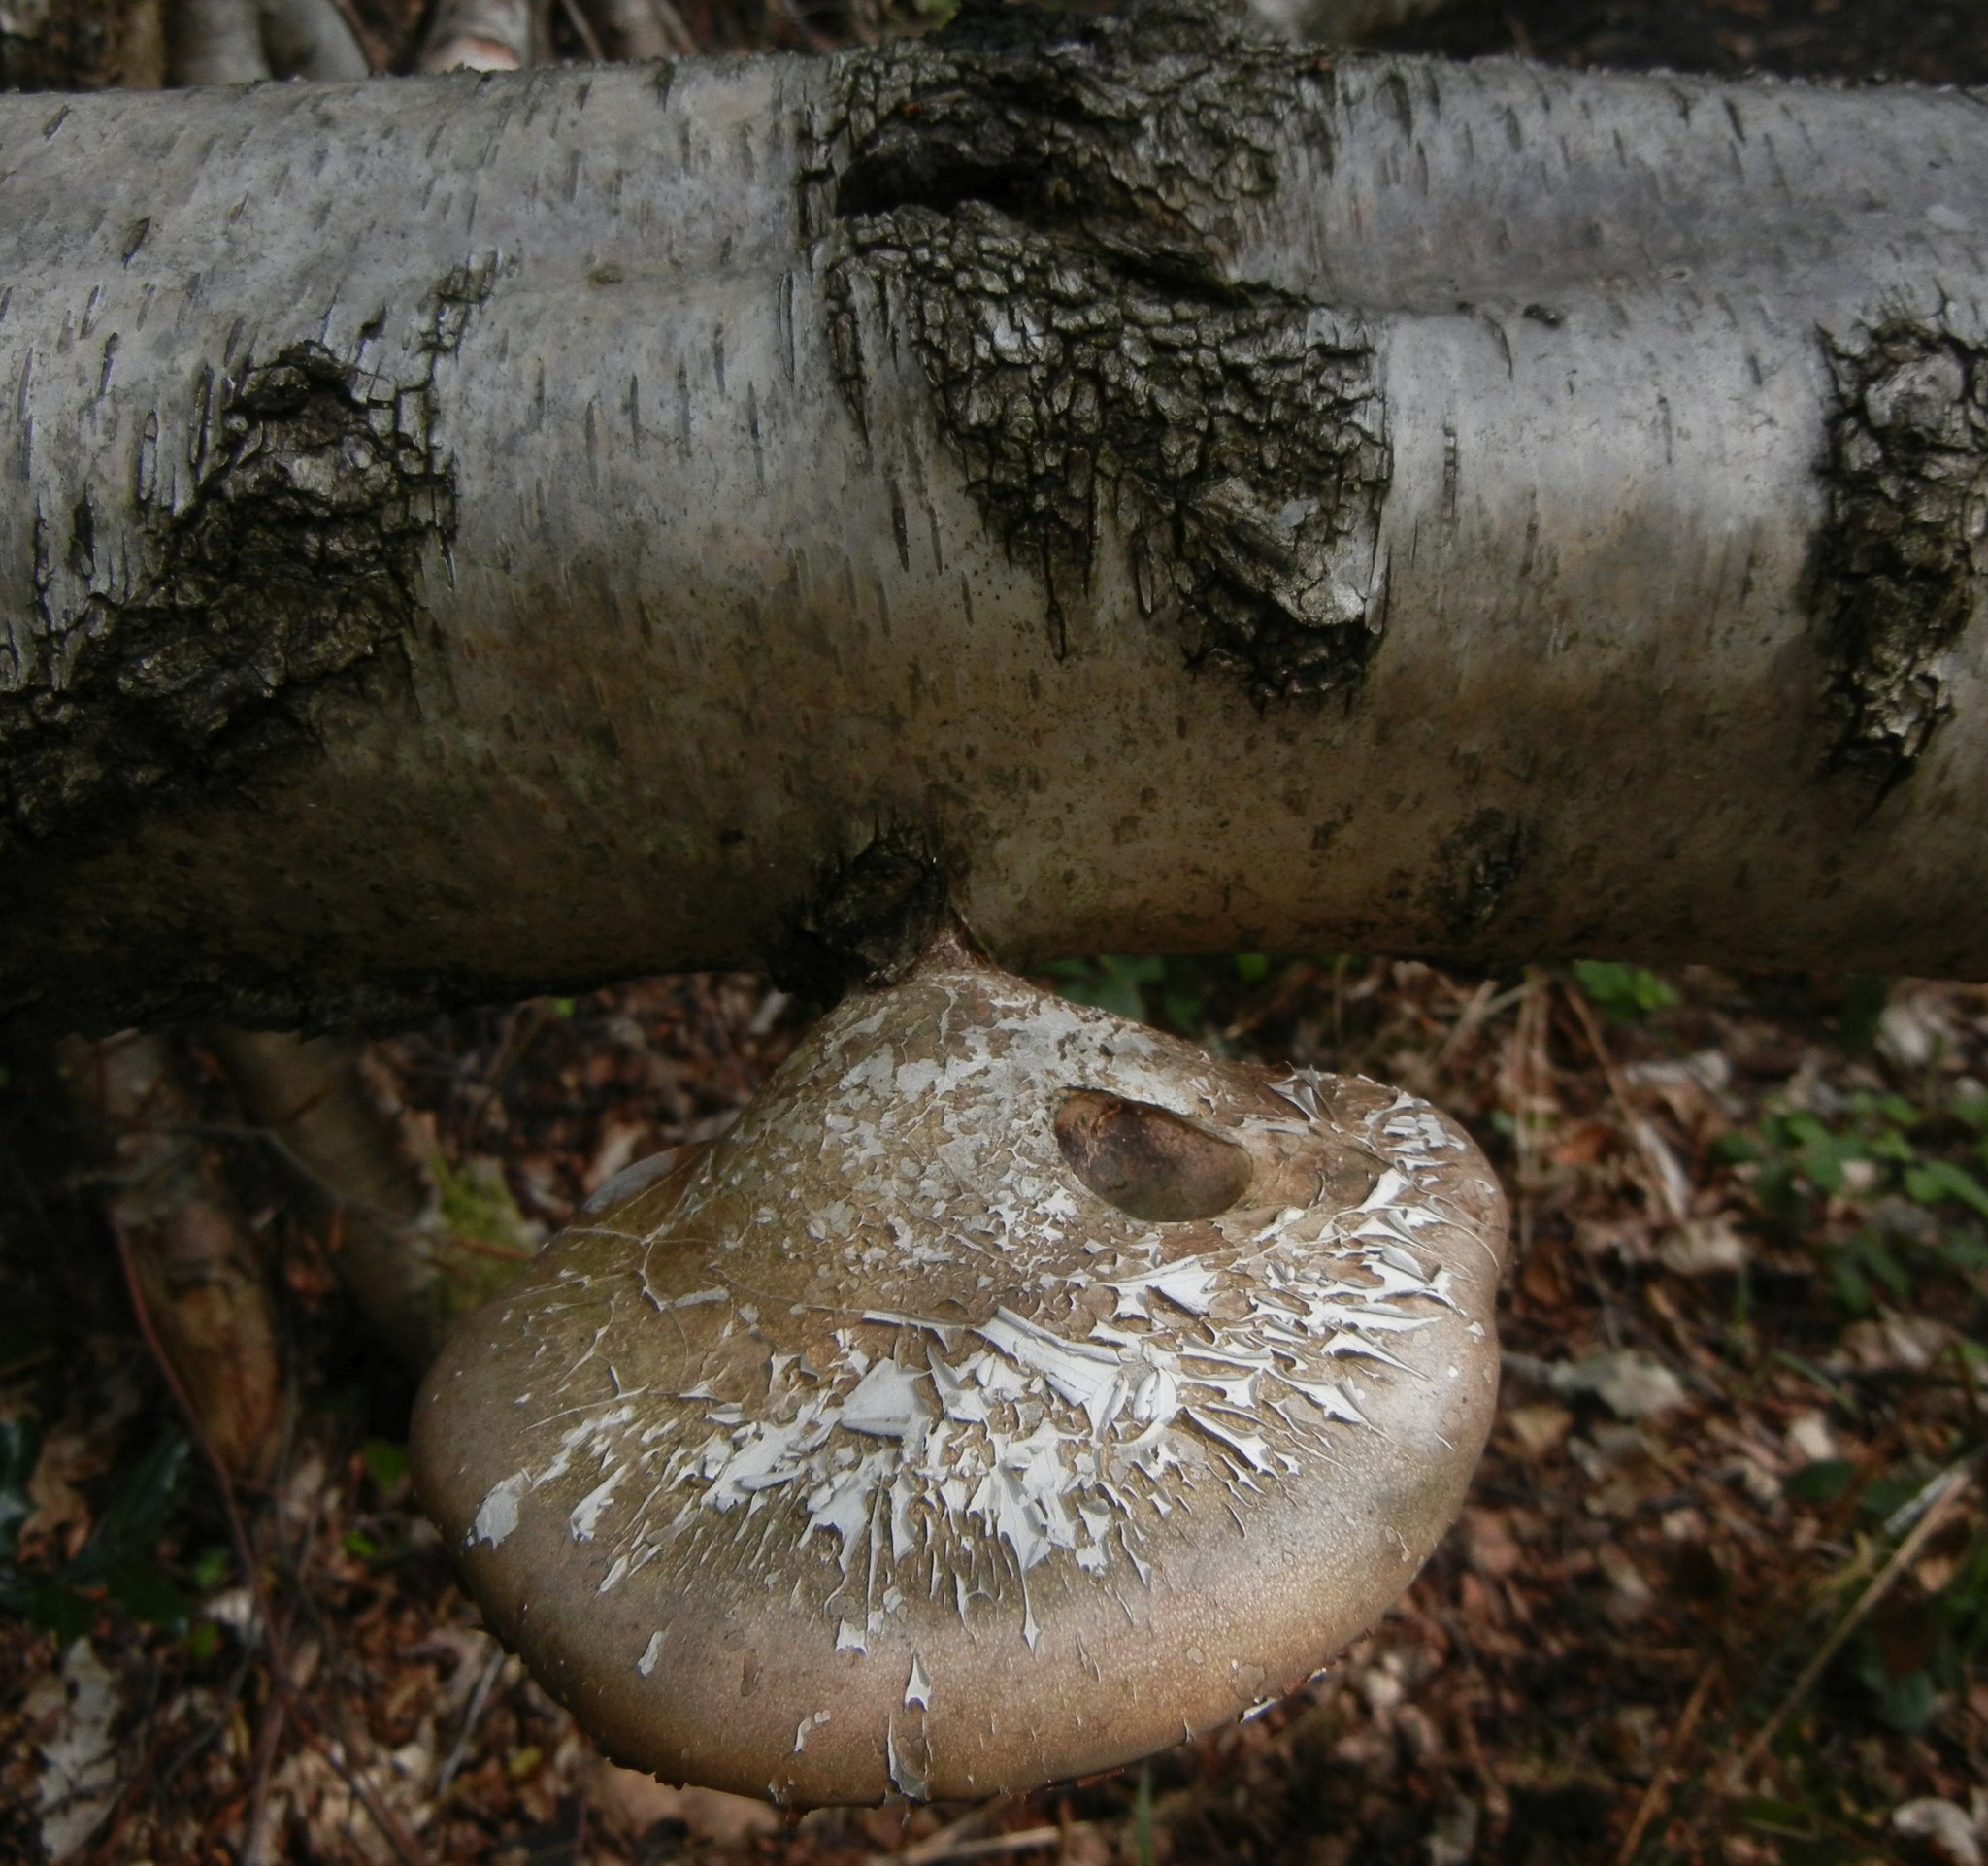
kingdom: Fungi
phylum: Basidiomycota
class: Agaricomycetes
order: Polyporales
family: Fomitopsidaceae
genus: Fomitopsis
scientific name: Fomitopsis betulina
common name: Birch polypore
